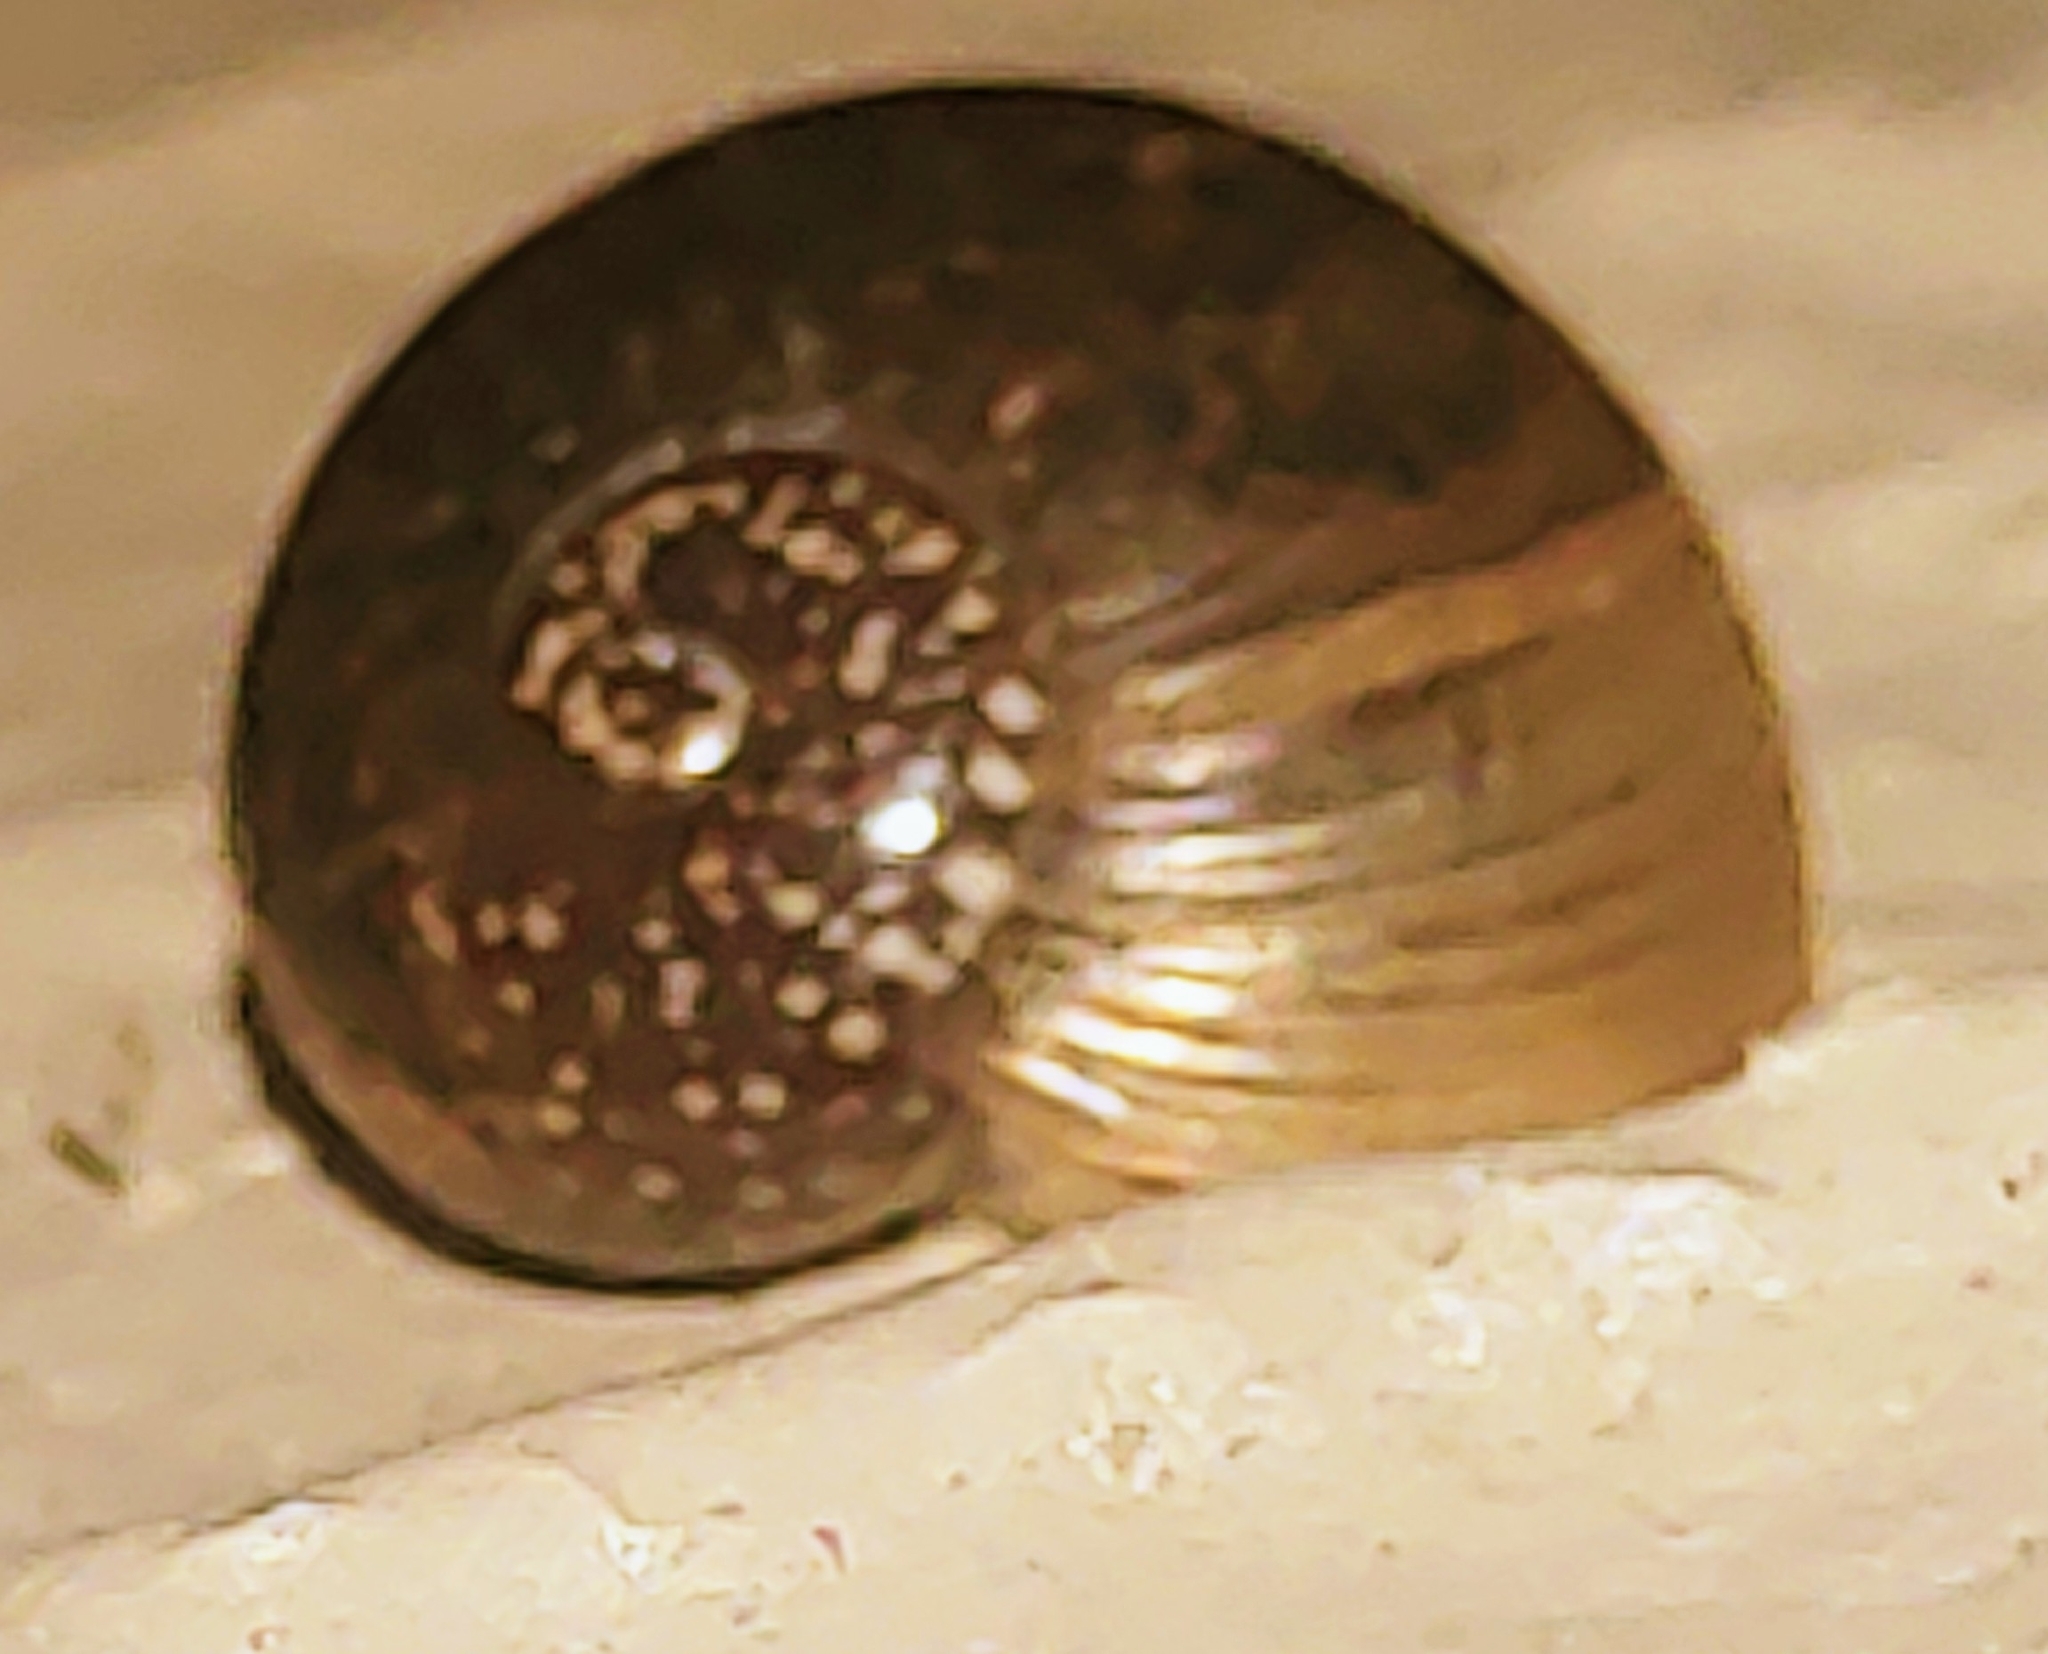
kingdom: Animalia
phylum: Mollusca
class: Gastropoda
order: Stylommatophora
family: Zachrysiidae
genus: Zachrysia
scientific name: Zachrysia provisoria
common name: Garden zachrysia
